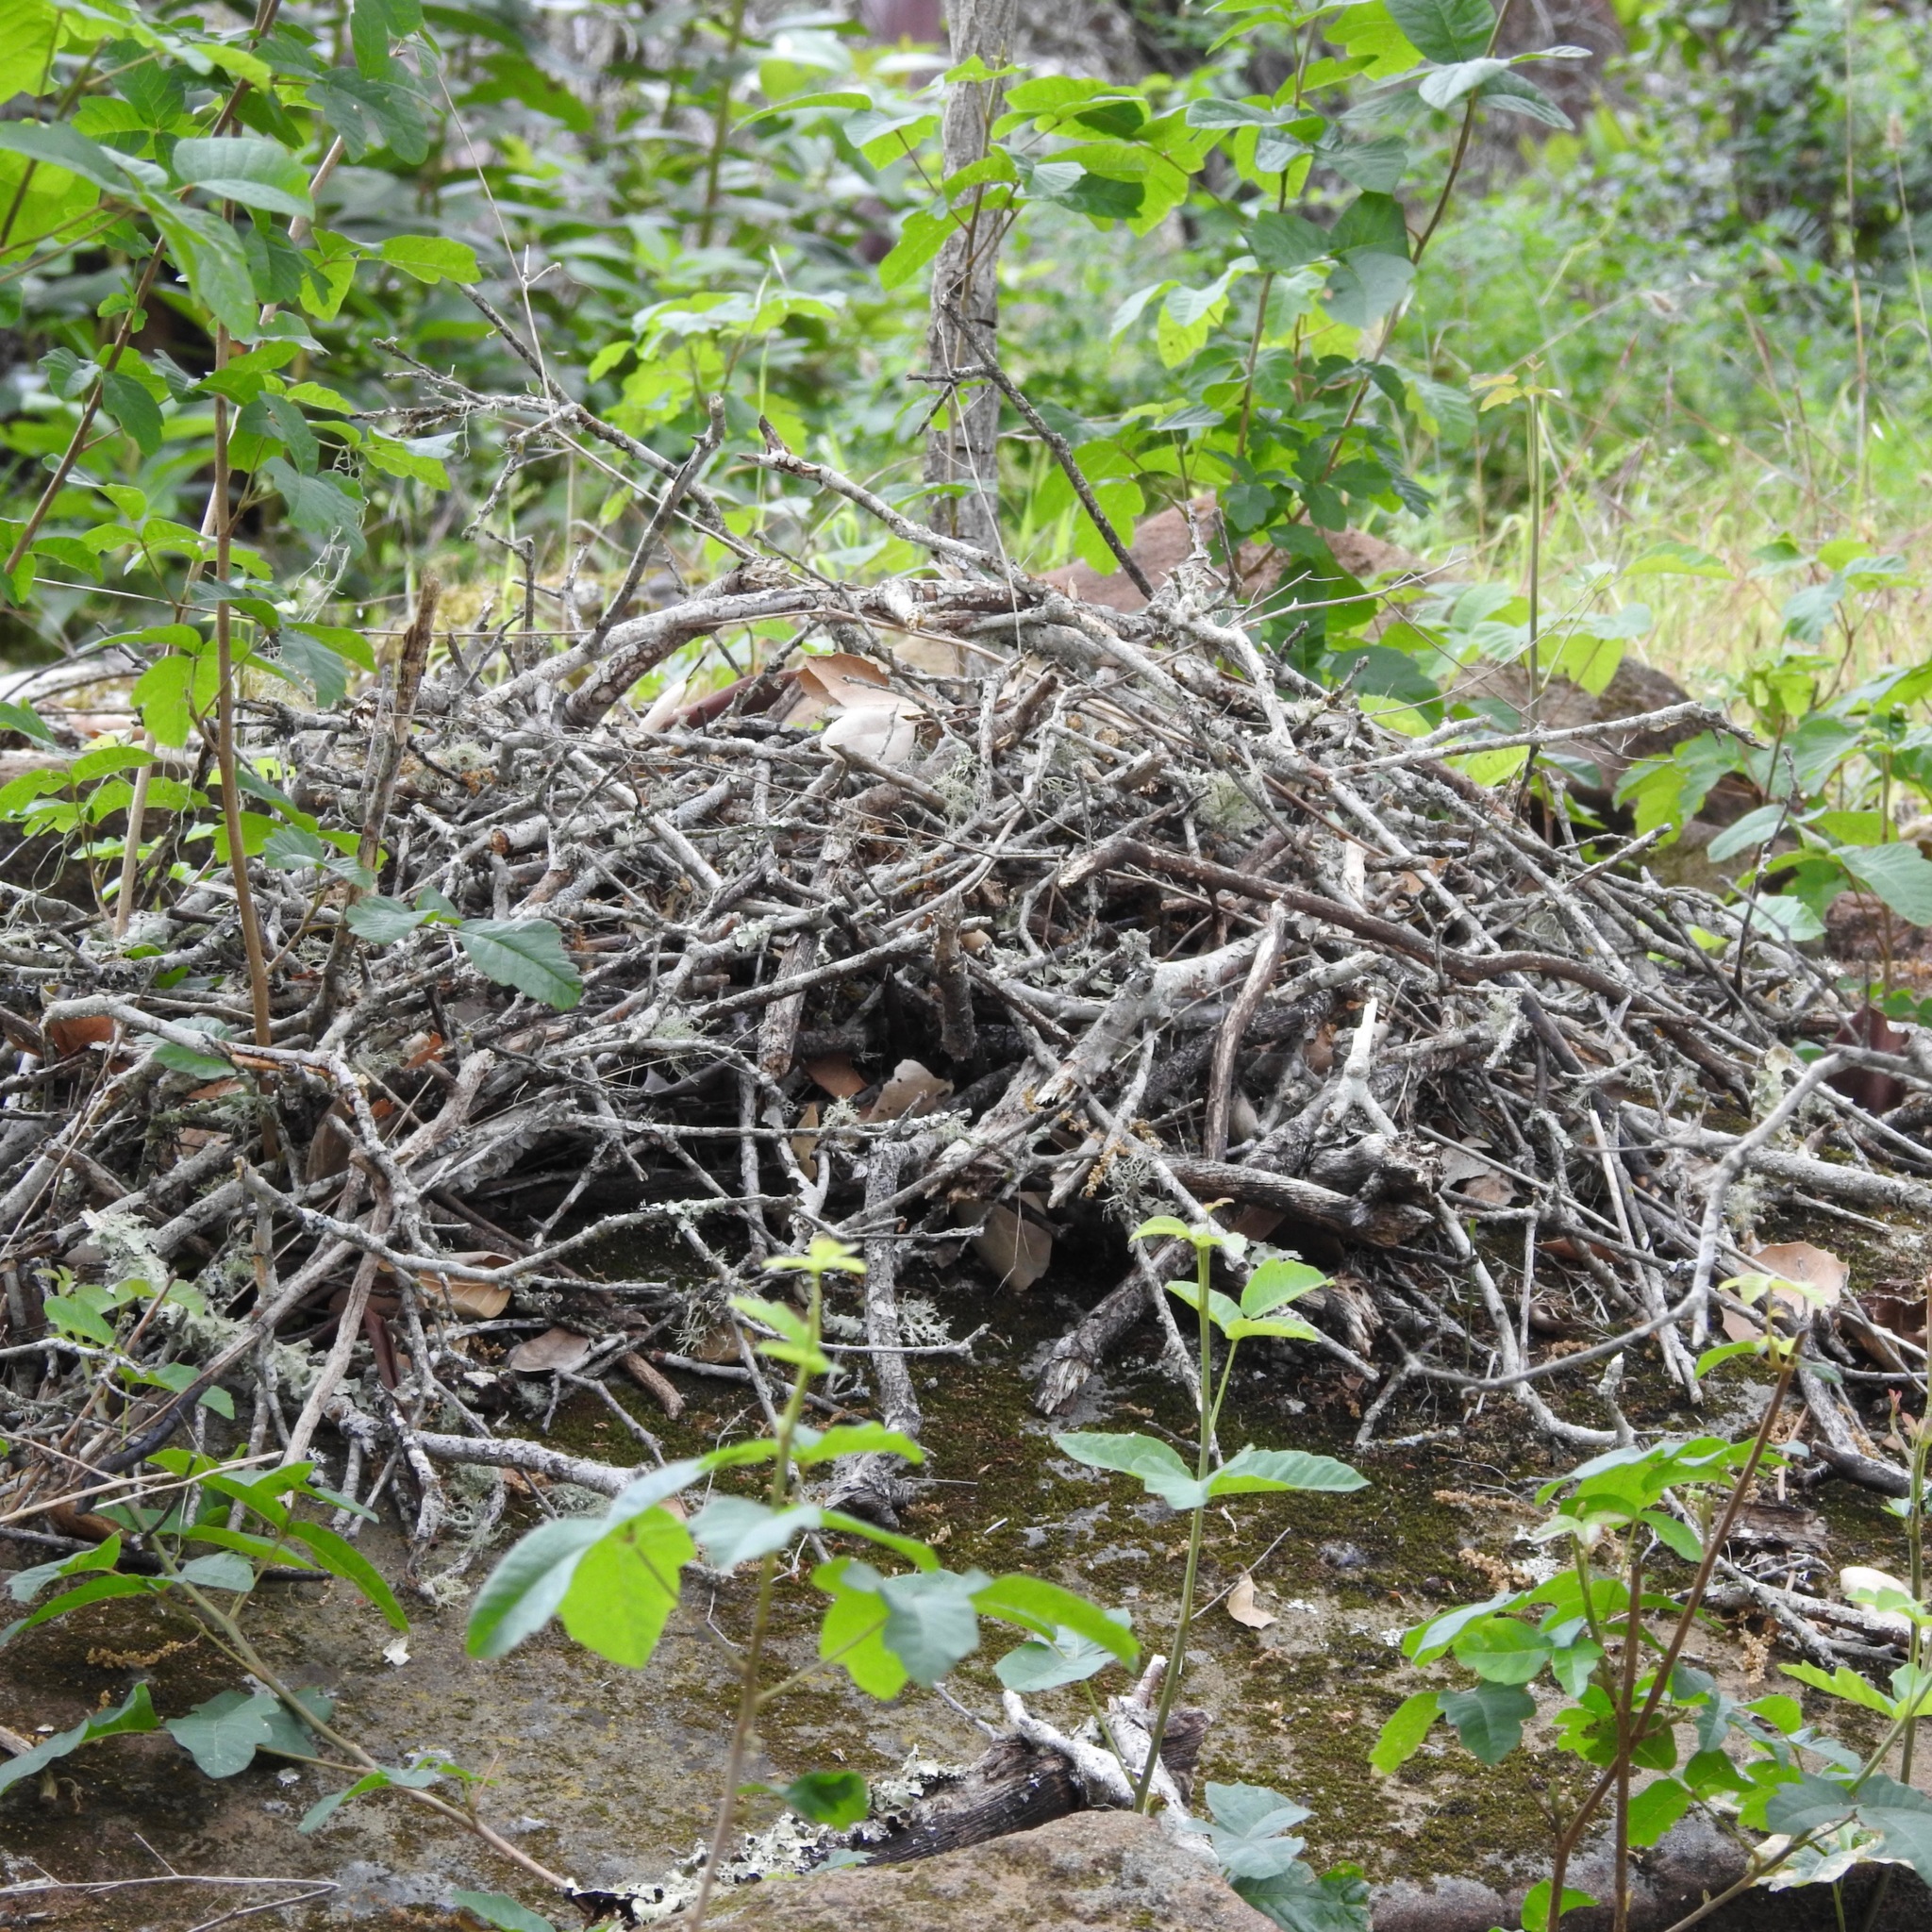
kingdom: Animalia
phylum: Chordata
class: Mammalia
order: Rodentia
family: Cricetidae
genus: Neotoma
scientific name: Neotoma fuscipes
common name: Dusky-footed woodrat
